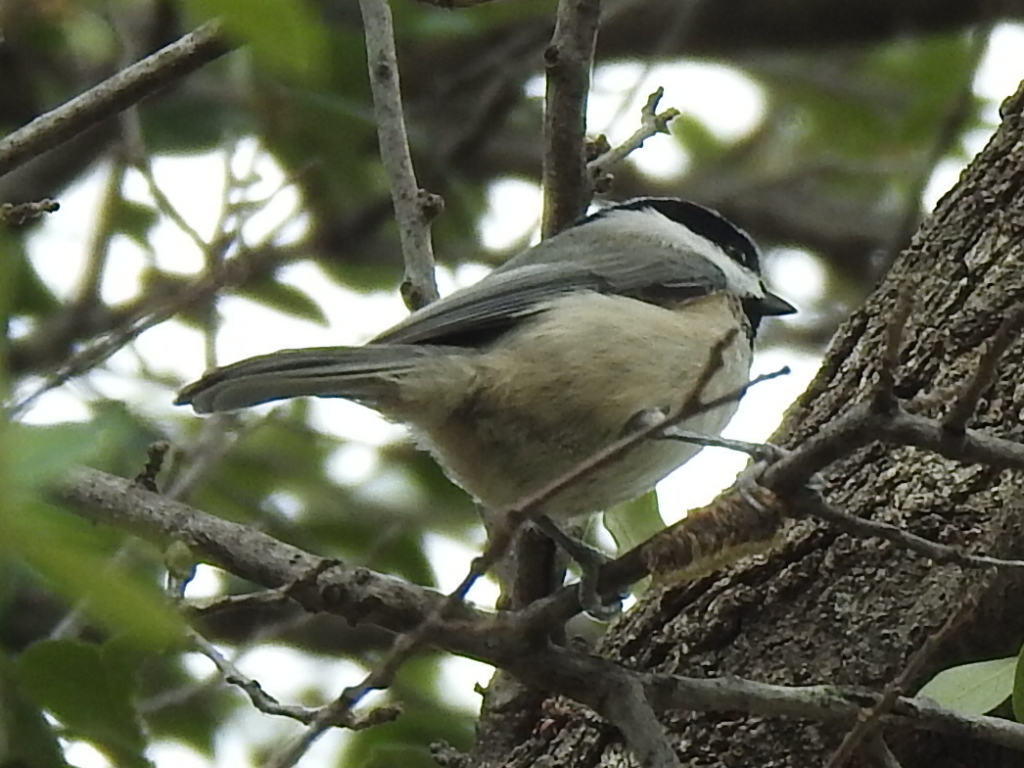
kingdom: Animalia
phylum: Chordata
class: Aves
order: Passeriformes
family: Paridae
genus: Poecile
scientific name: Poecile carolinensis
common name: Carolina chickadee
